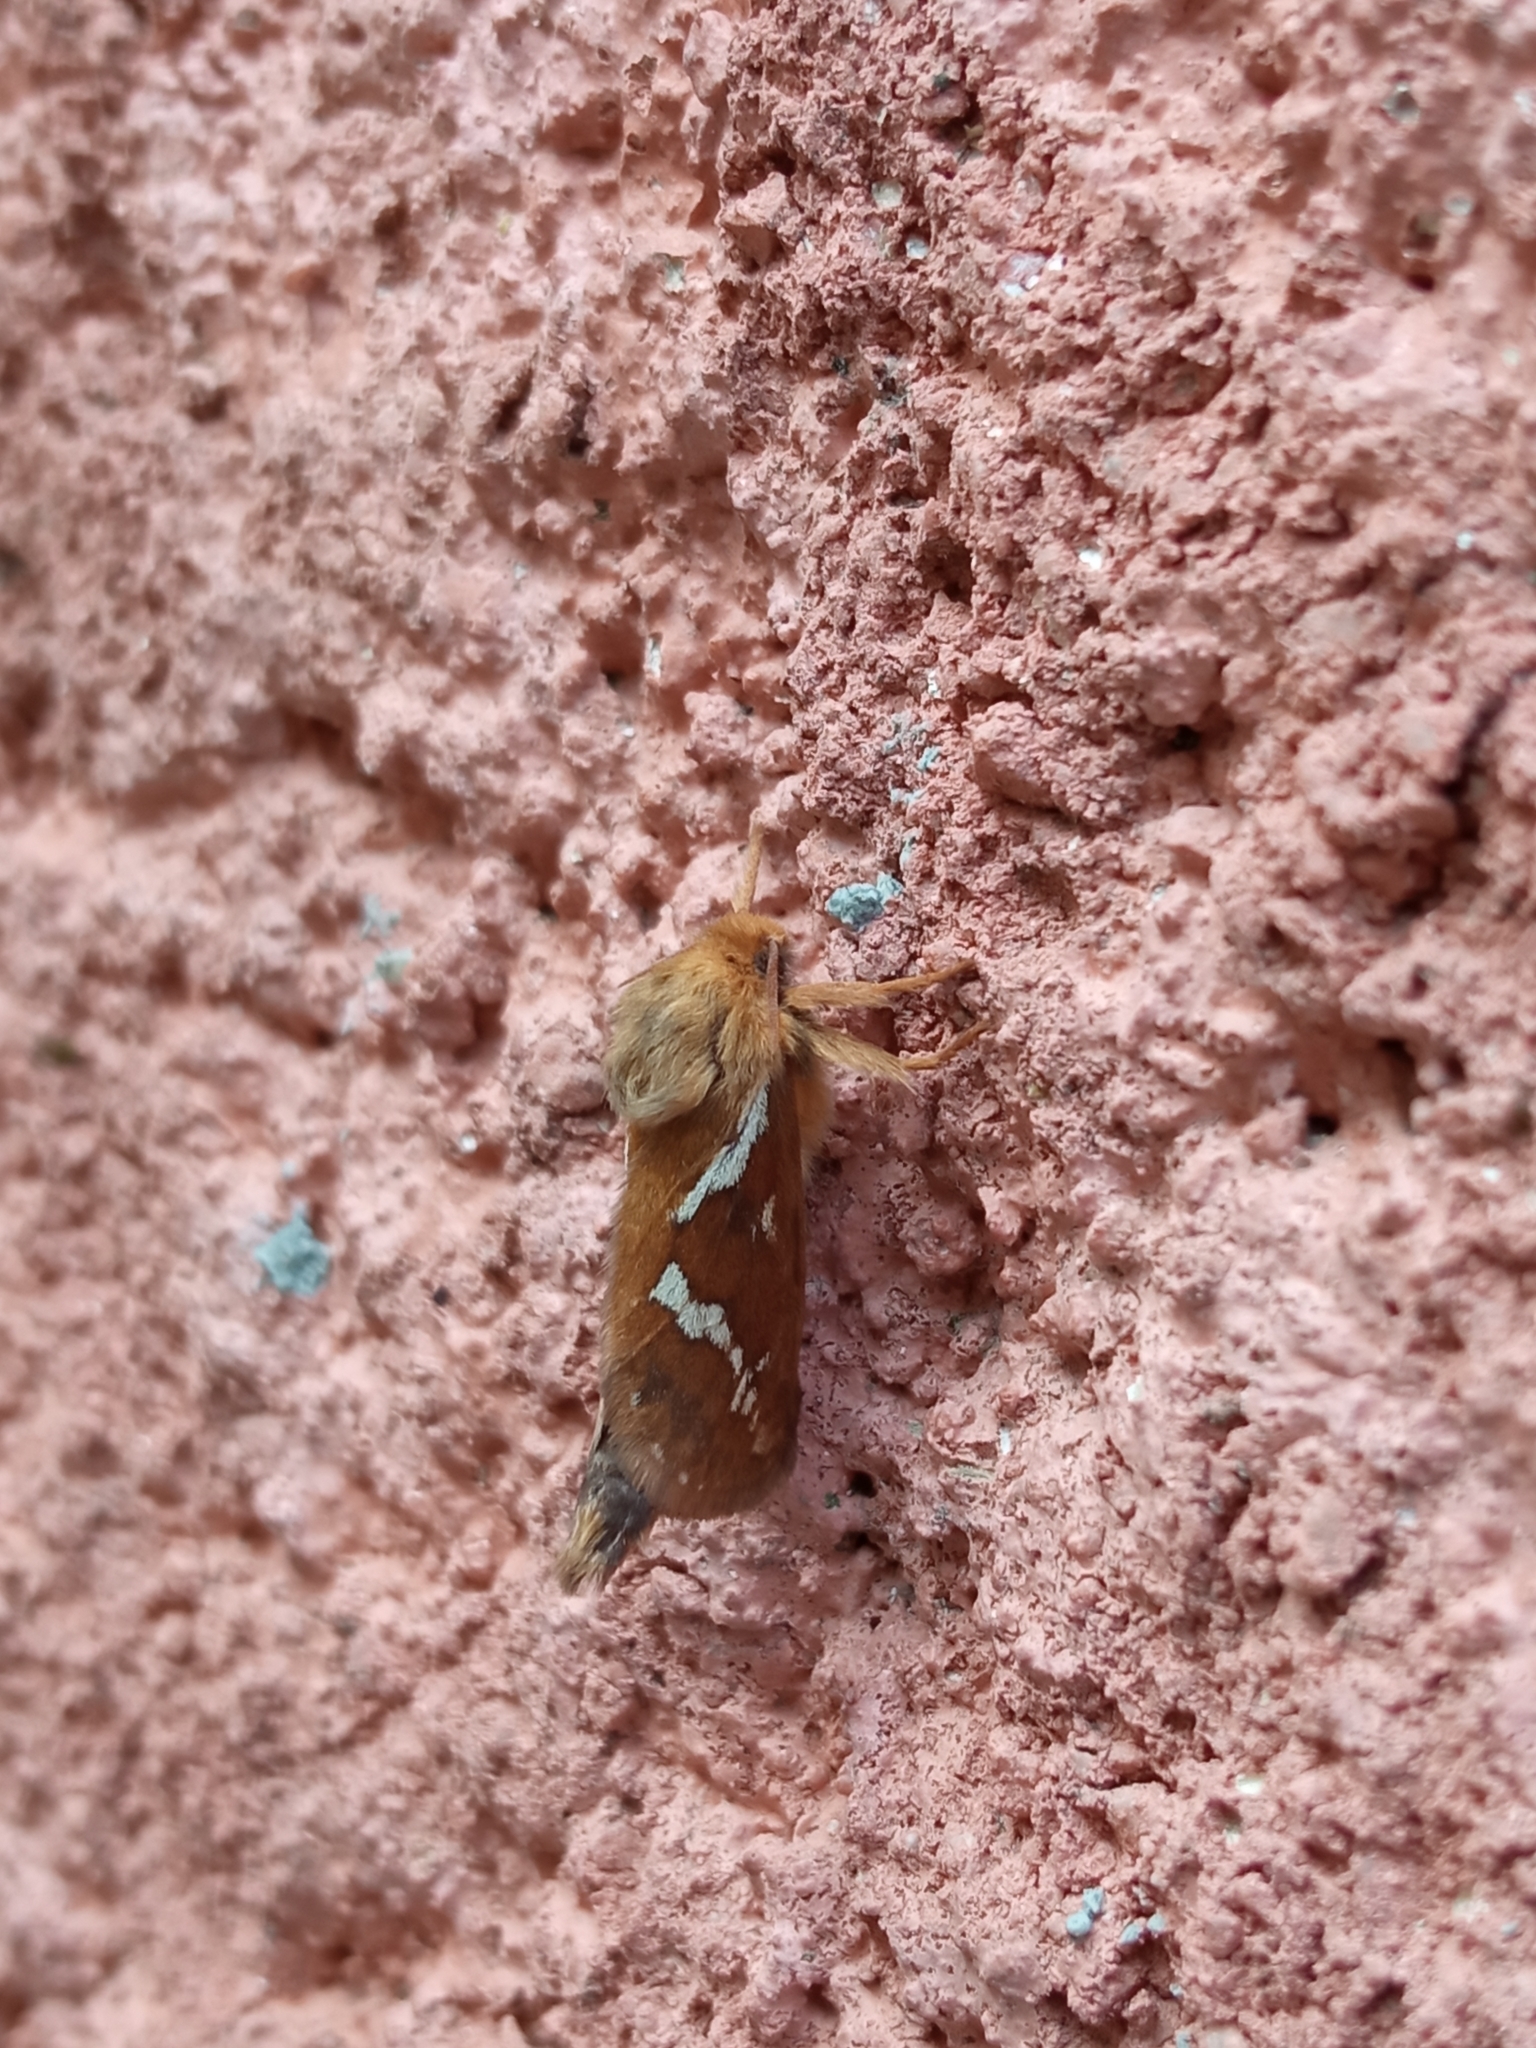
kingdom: Animalia
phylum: Arthropoda
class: Insecta
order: Lepidoptera
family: Hepialidae
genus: Korscheltellus
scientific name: Korscheltellus lupulina
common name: Common swift
